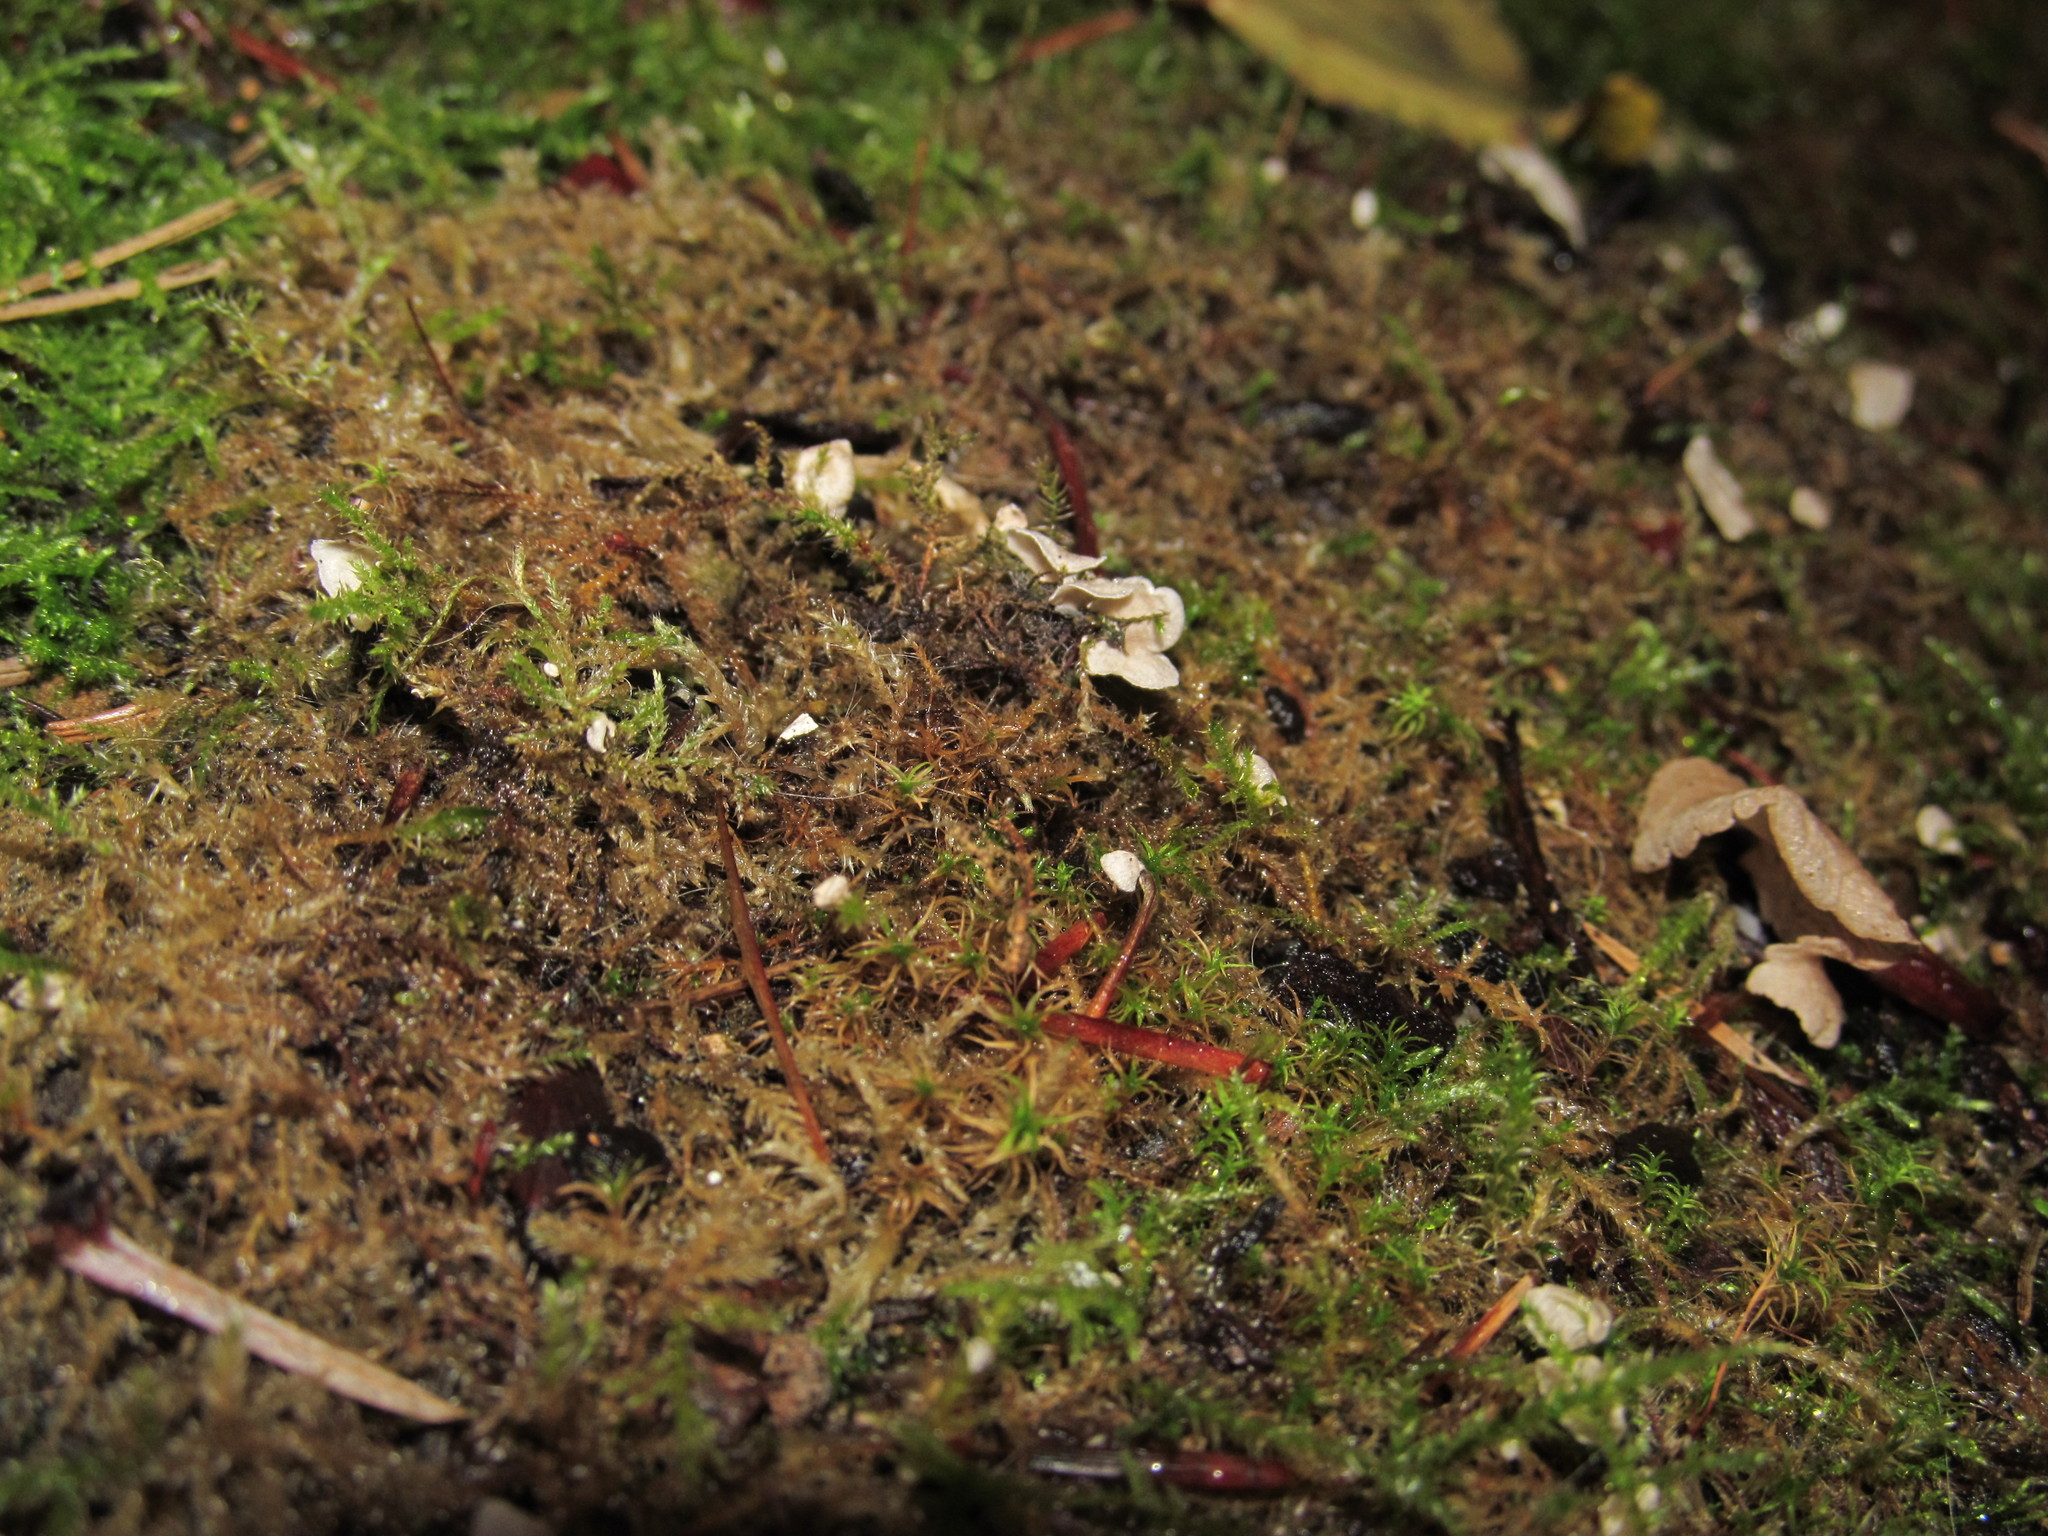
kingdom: Fungi
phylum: Basidiomycota
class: Agaricomycetes
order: Agaricales
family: Hygrophoraceae
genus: Arrhenia
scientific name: Arrhenia retiruga
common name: Small moss oysterling
